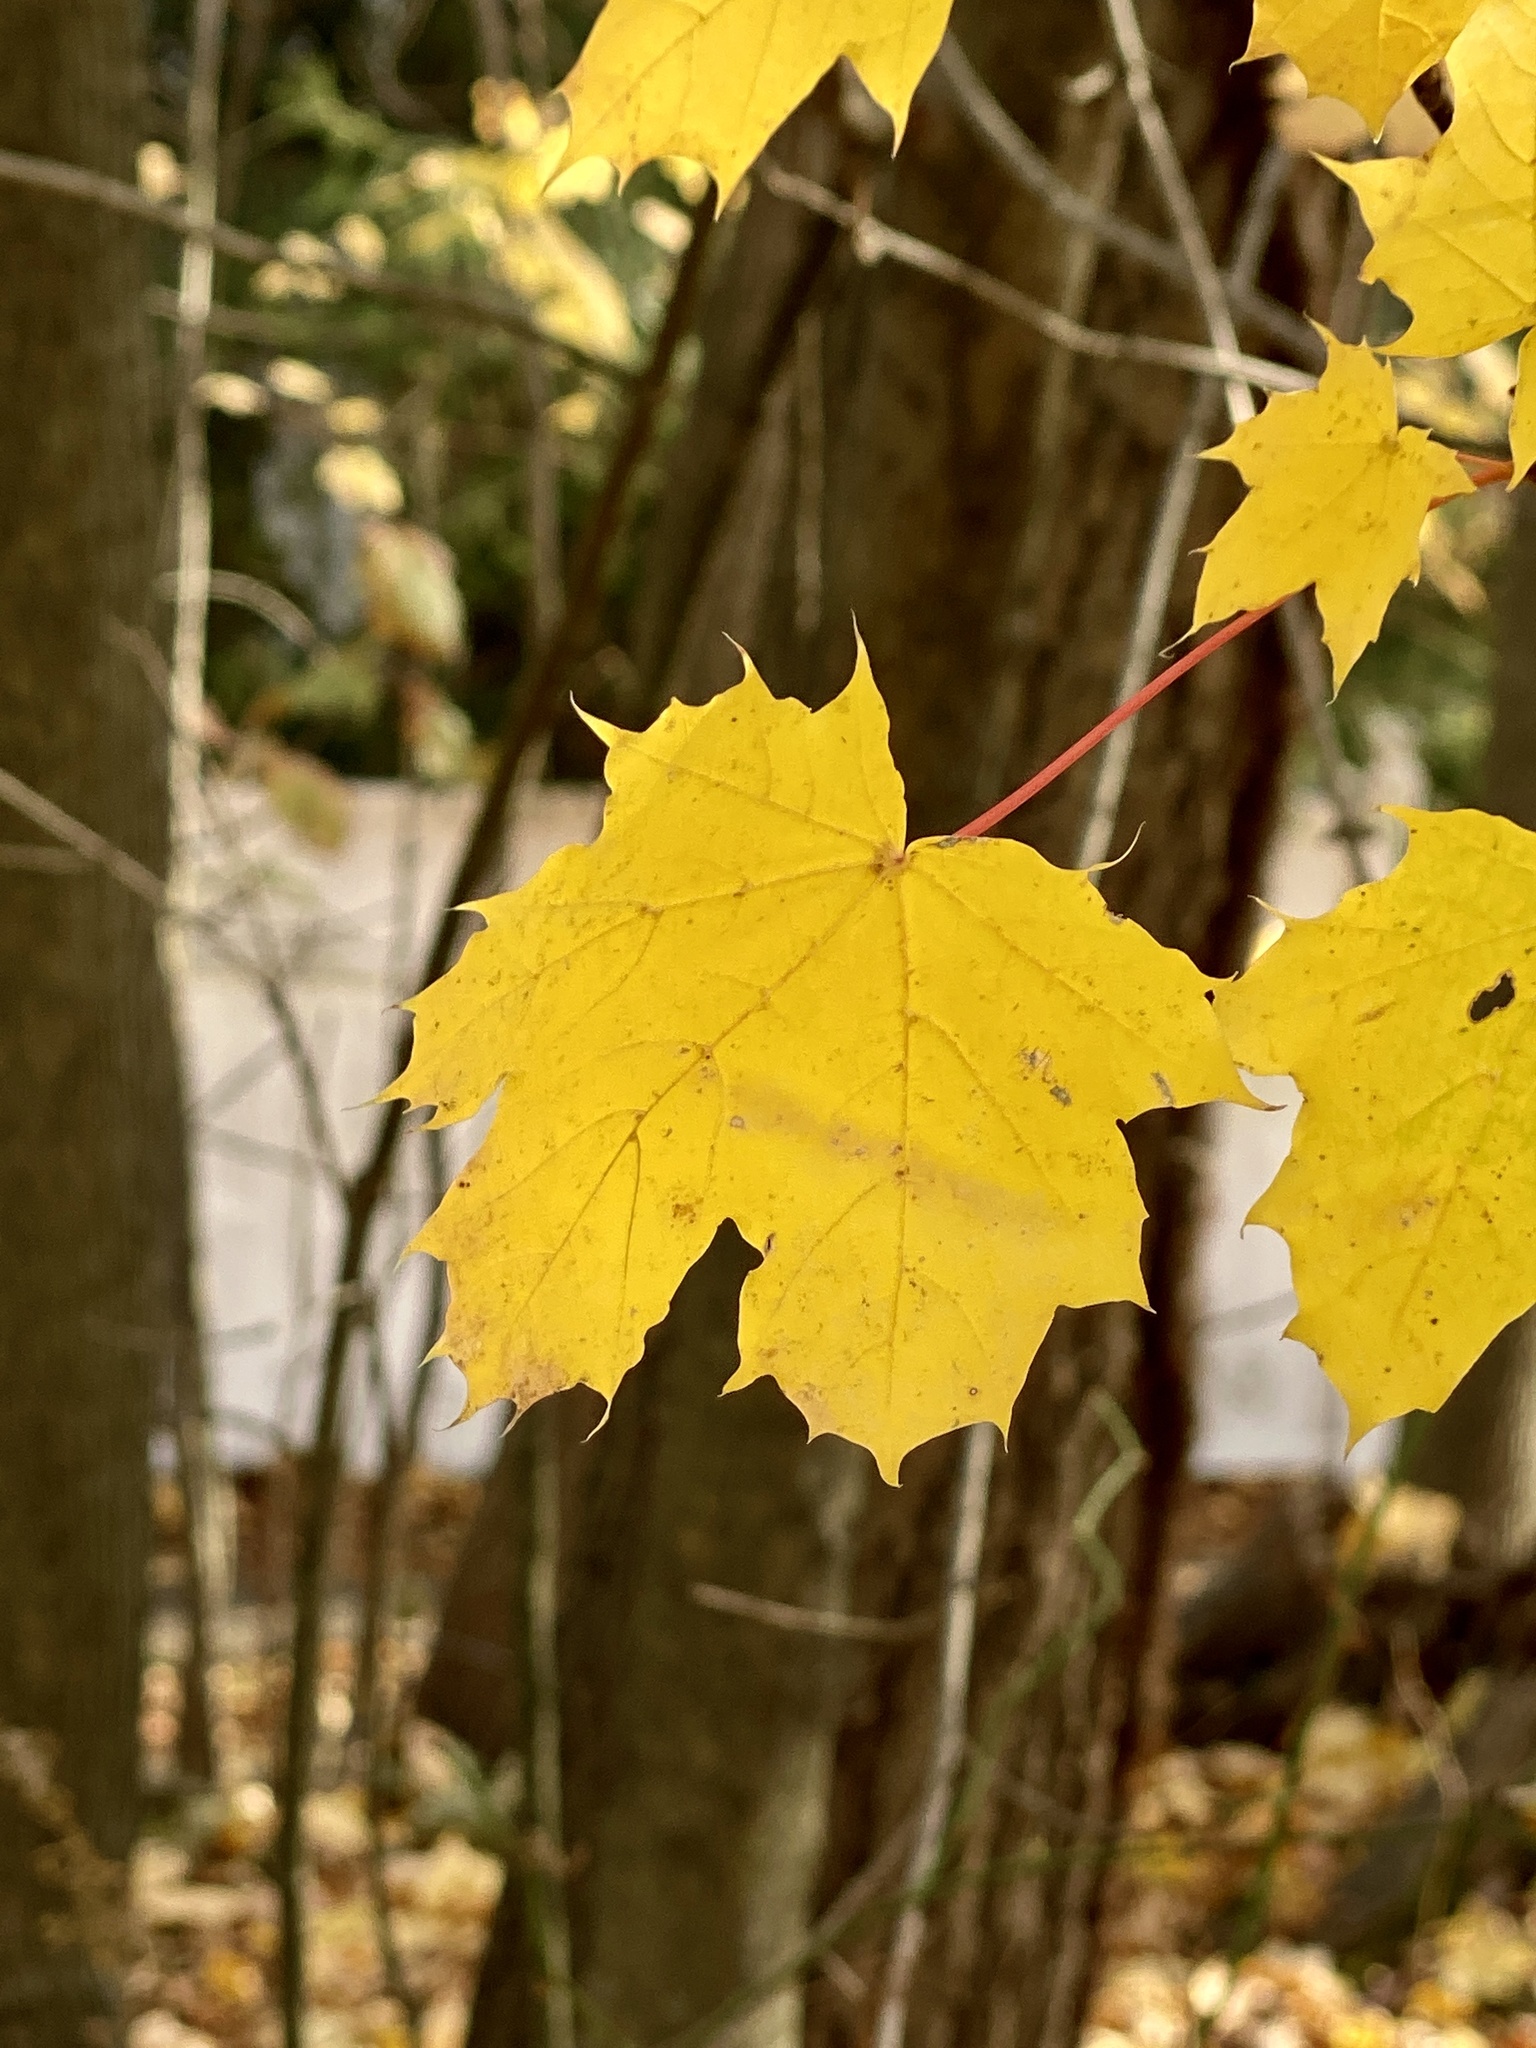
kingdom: Plantae
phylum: Tracheophyta
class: Magnoliopsida
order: Sapindales
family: Sapindaceae
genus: Acer
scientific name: Acer platanoides
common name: Norway maple
